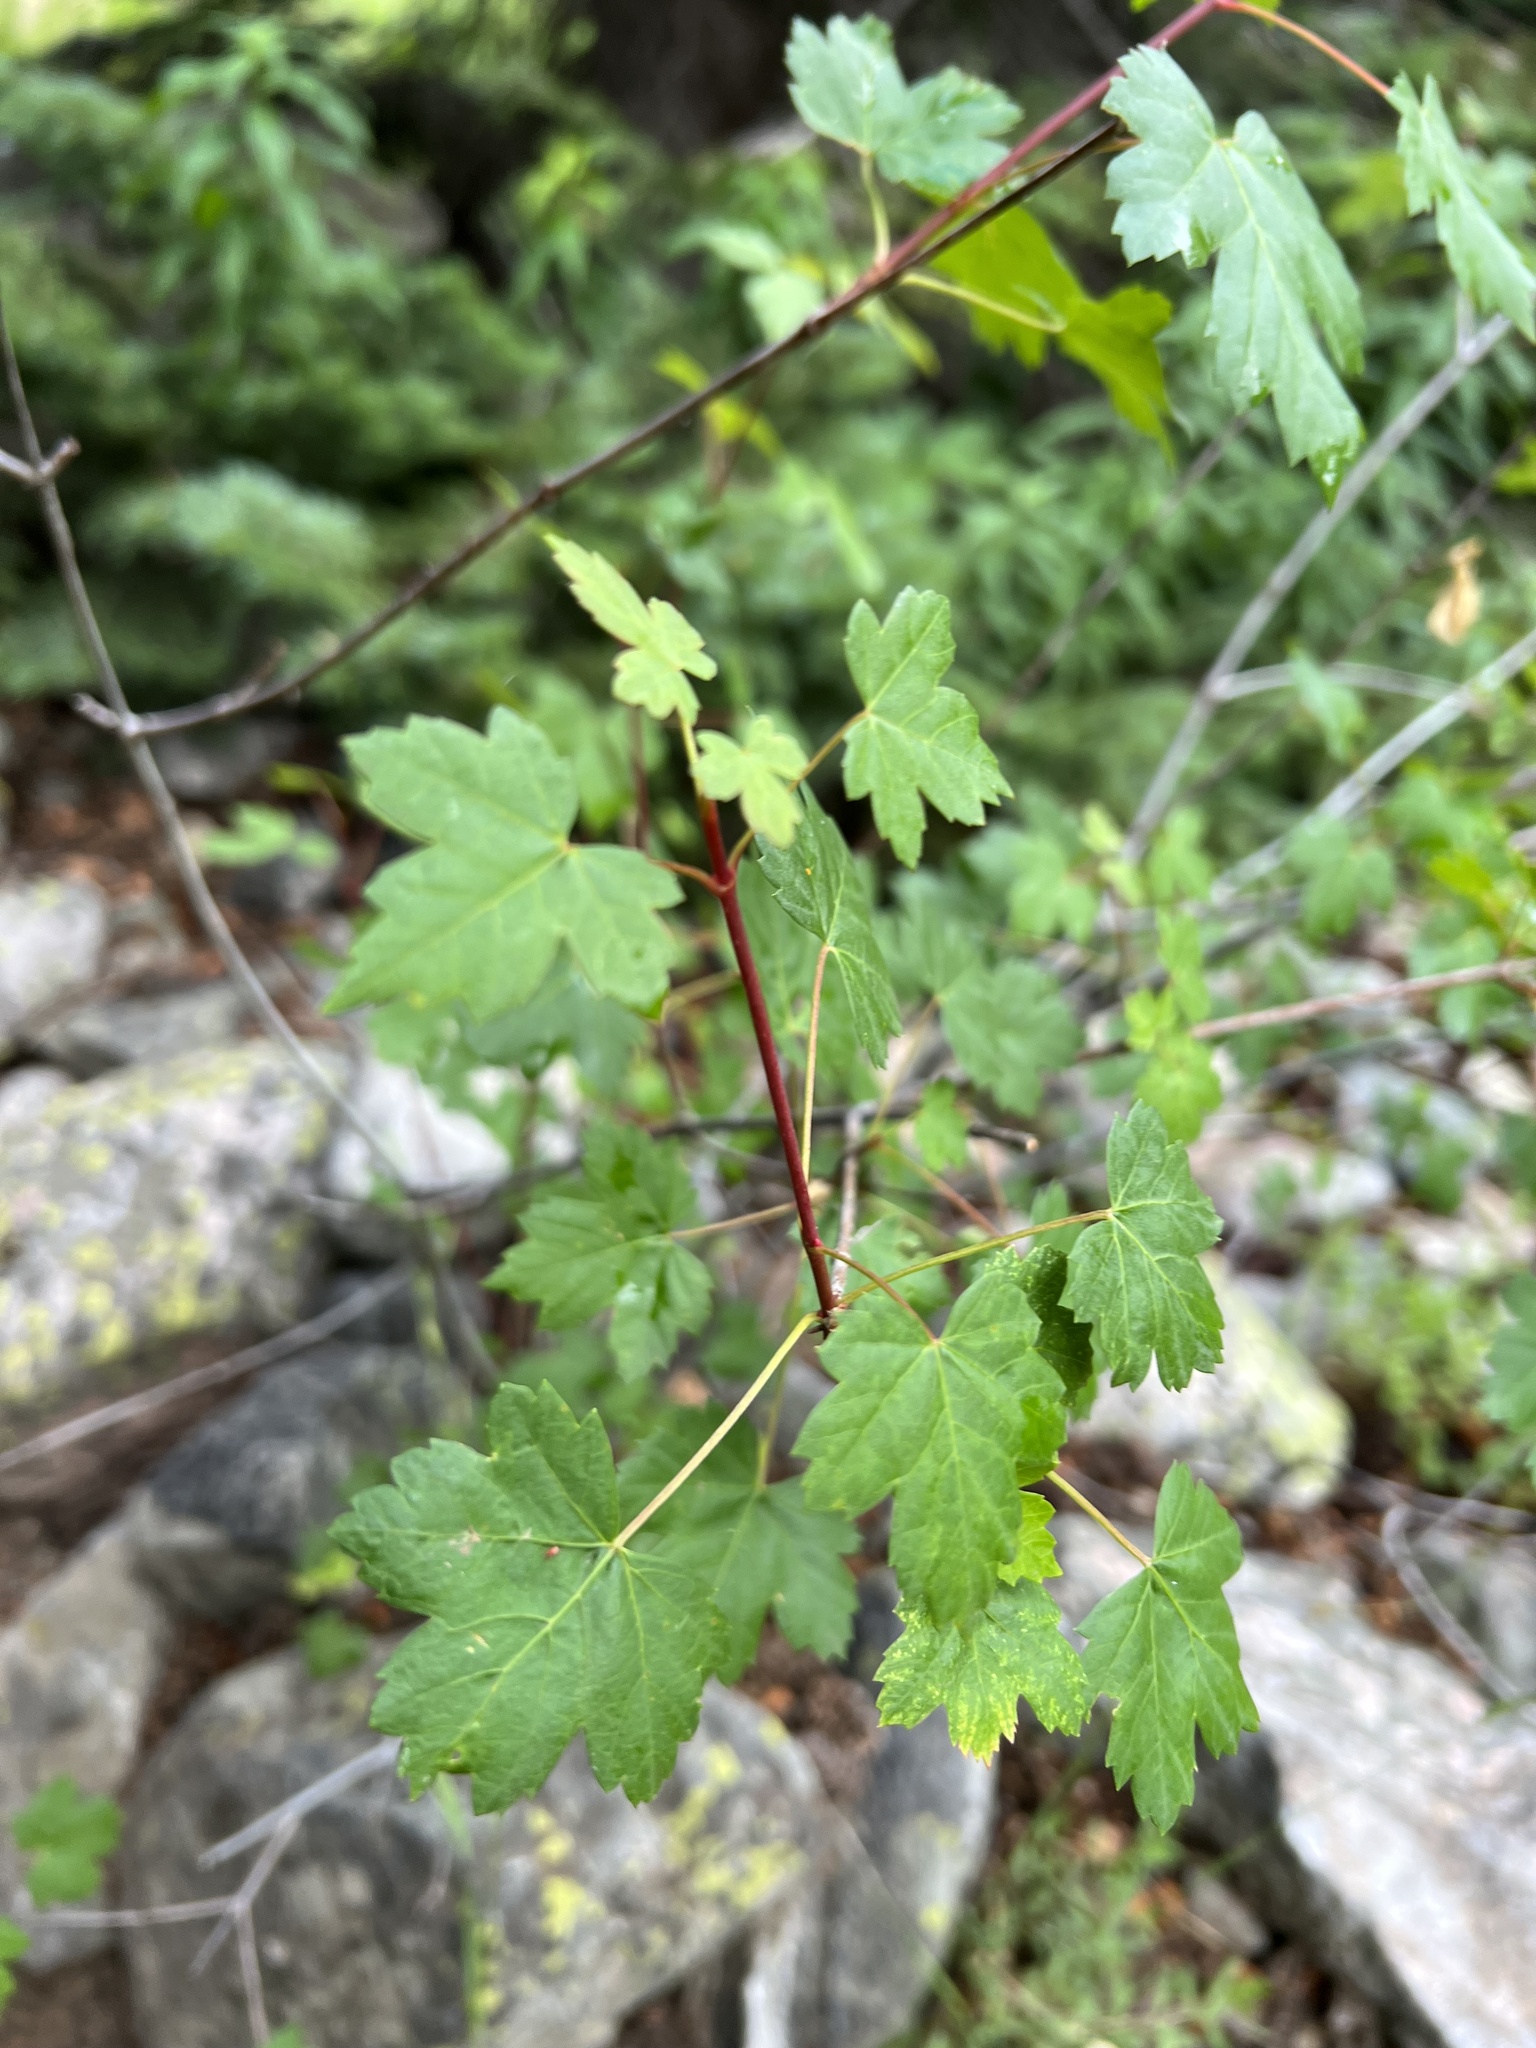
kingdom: Plantae
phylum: Tracheophyta
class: Magnoliopsida
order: Sapindales
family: Sapindaceae
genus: Acer
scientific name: Acer glabrum
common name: Rocky mountain maple
